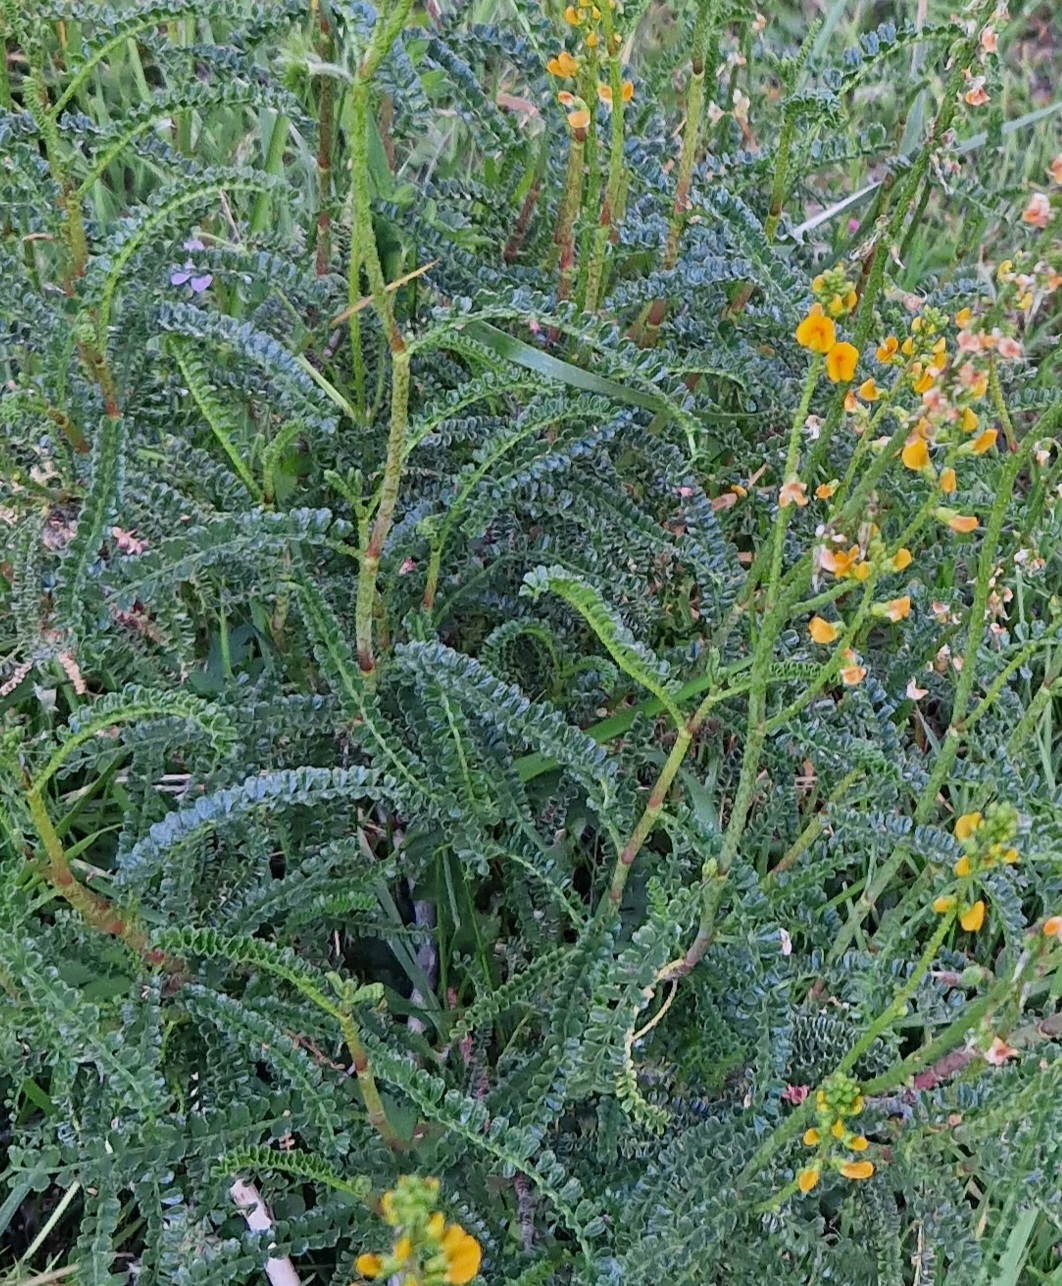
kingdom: Plantae
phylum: Tracheophyta
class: Magnoliopsida
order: Fabales
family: Fabaceae
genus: Adesmia
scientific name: Adesmia boronioides
